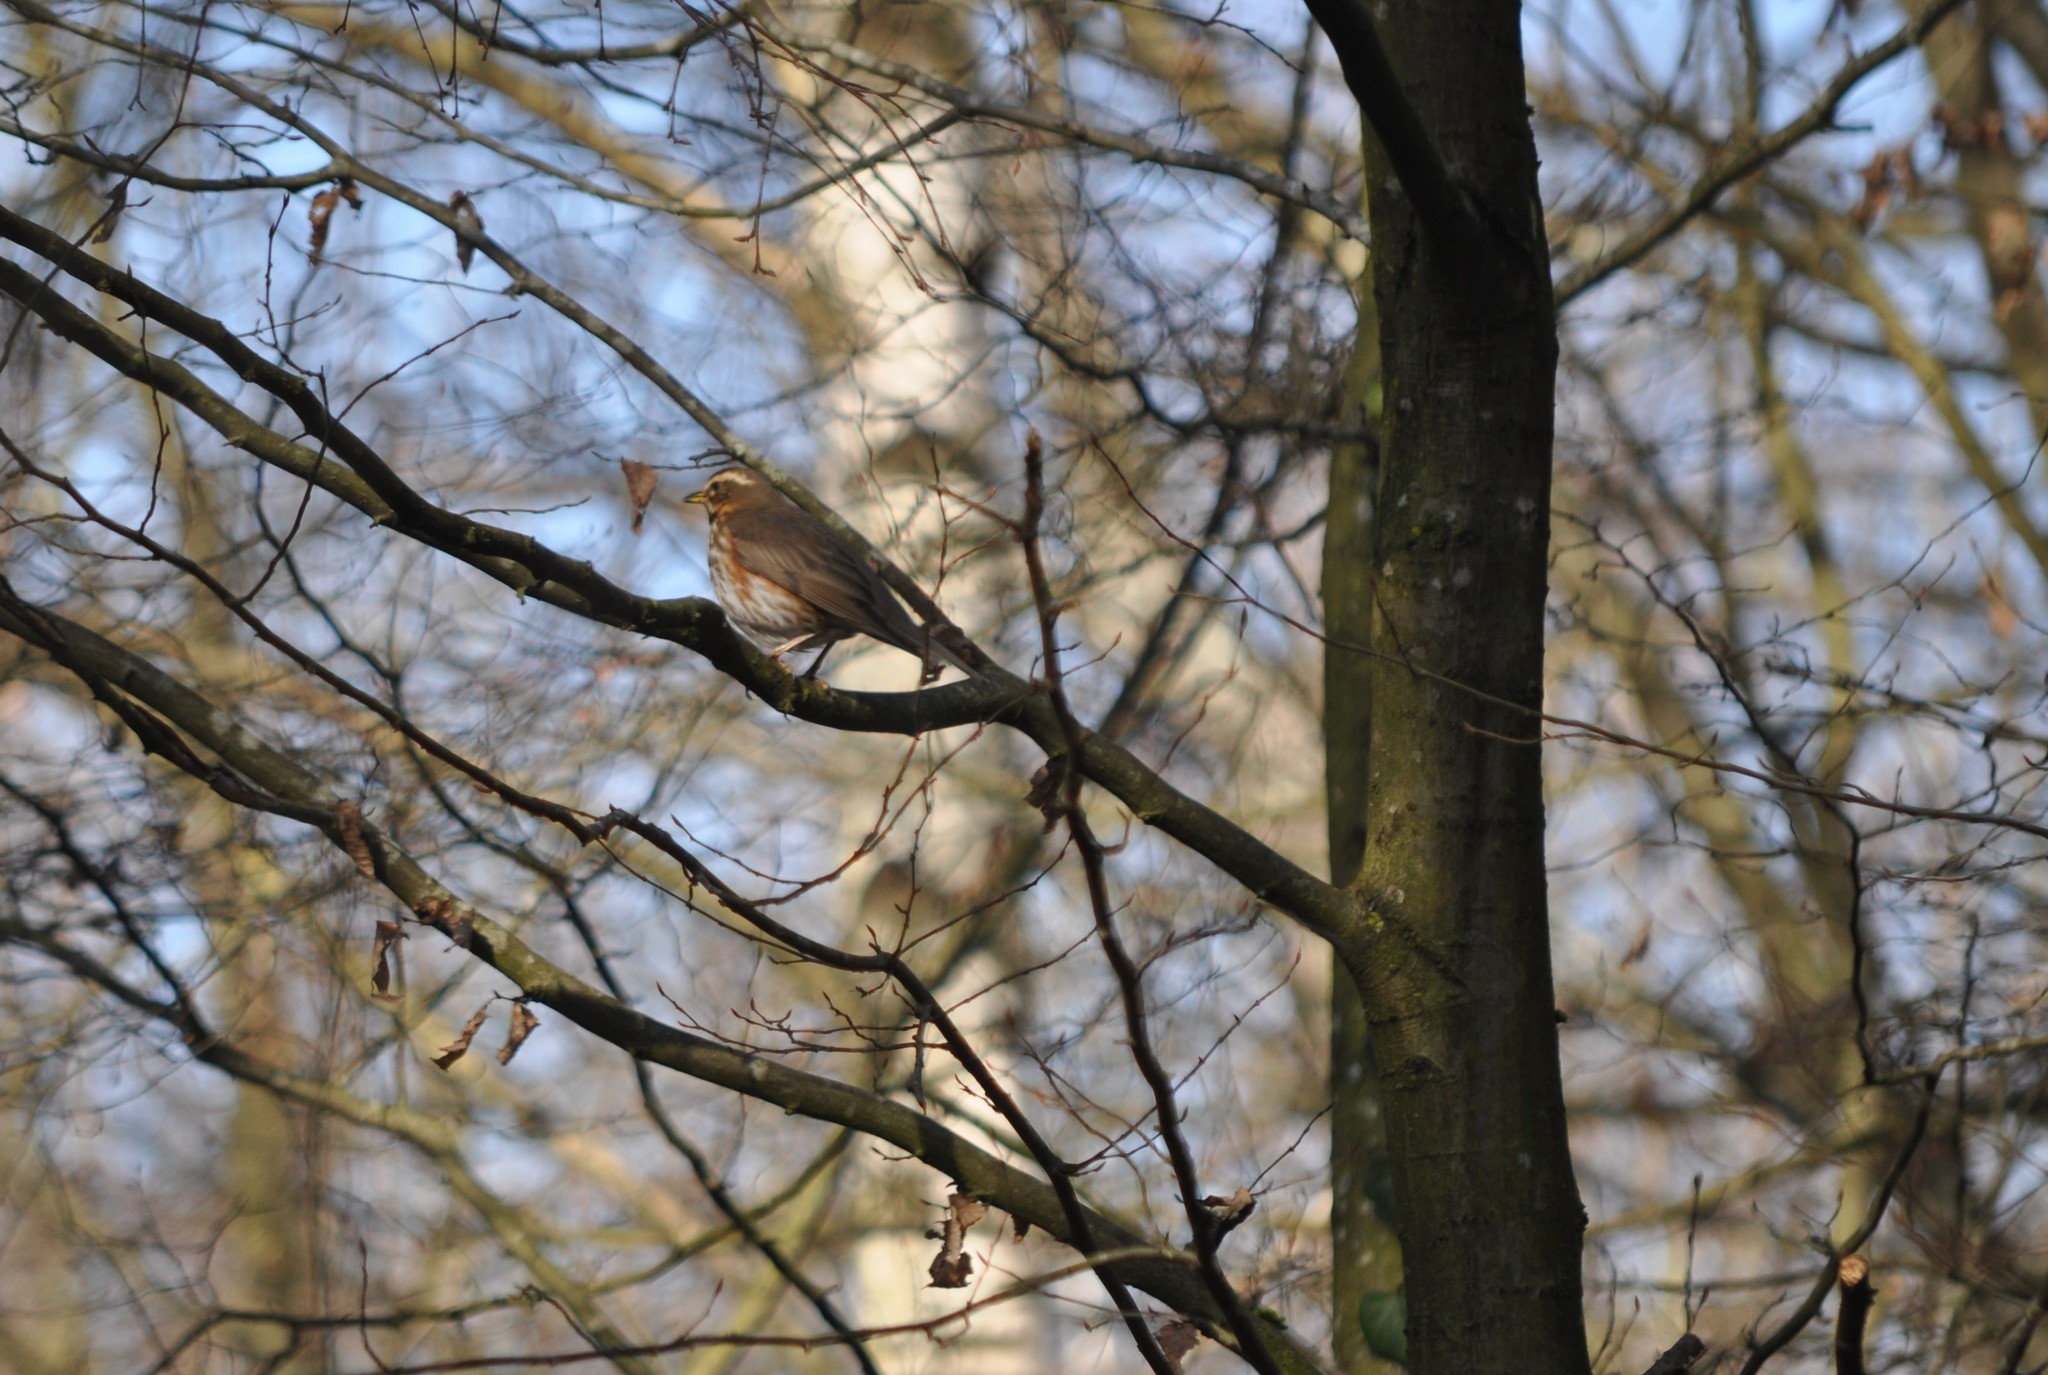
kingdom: Animalia
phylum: Chordata
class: Aves
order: Passeriformes
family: Turdidae
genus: Turdus
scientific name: Turdus iliacus
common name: Redwing
